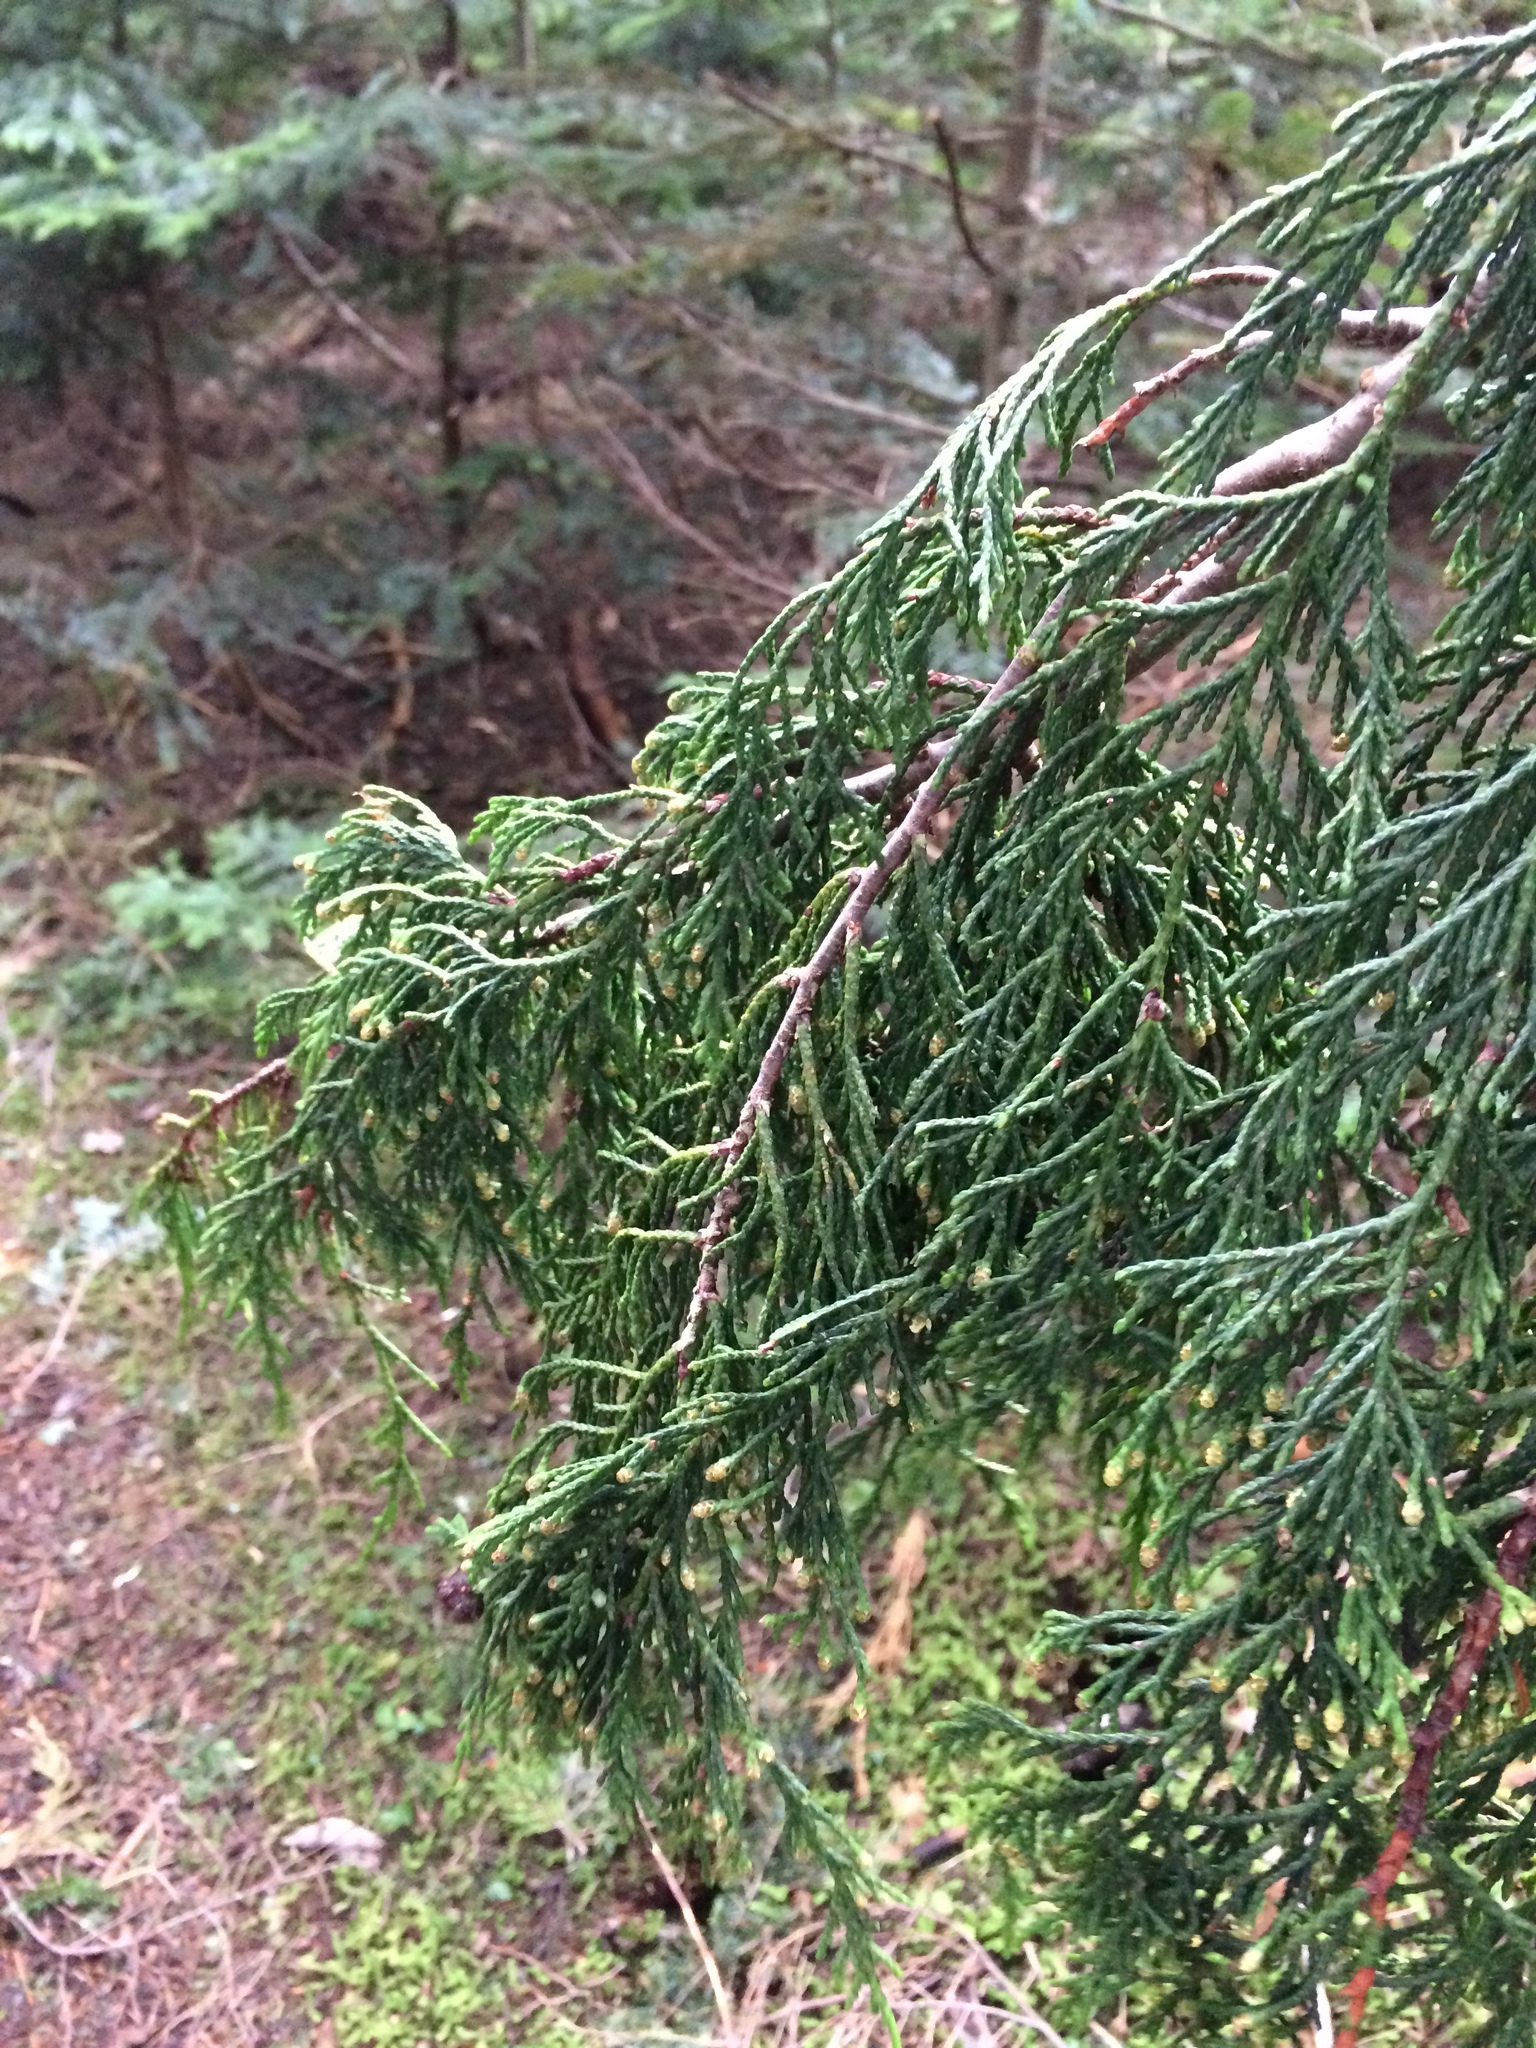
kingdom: Plantae
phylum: Tracheophyta
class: Pinopsida
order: Pinales
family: Cupressaceae
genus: Xanthocyparis
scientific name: Xanthocyparis nootkatensis
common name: Nootka cypress
